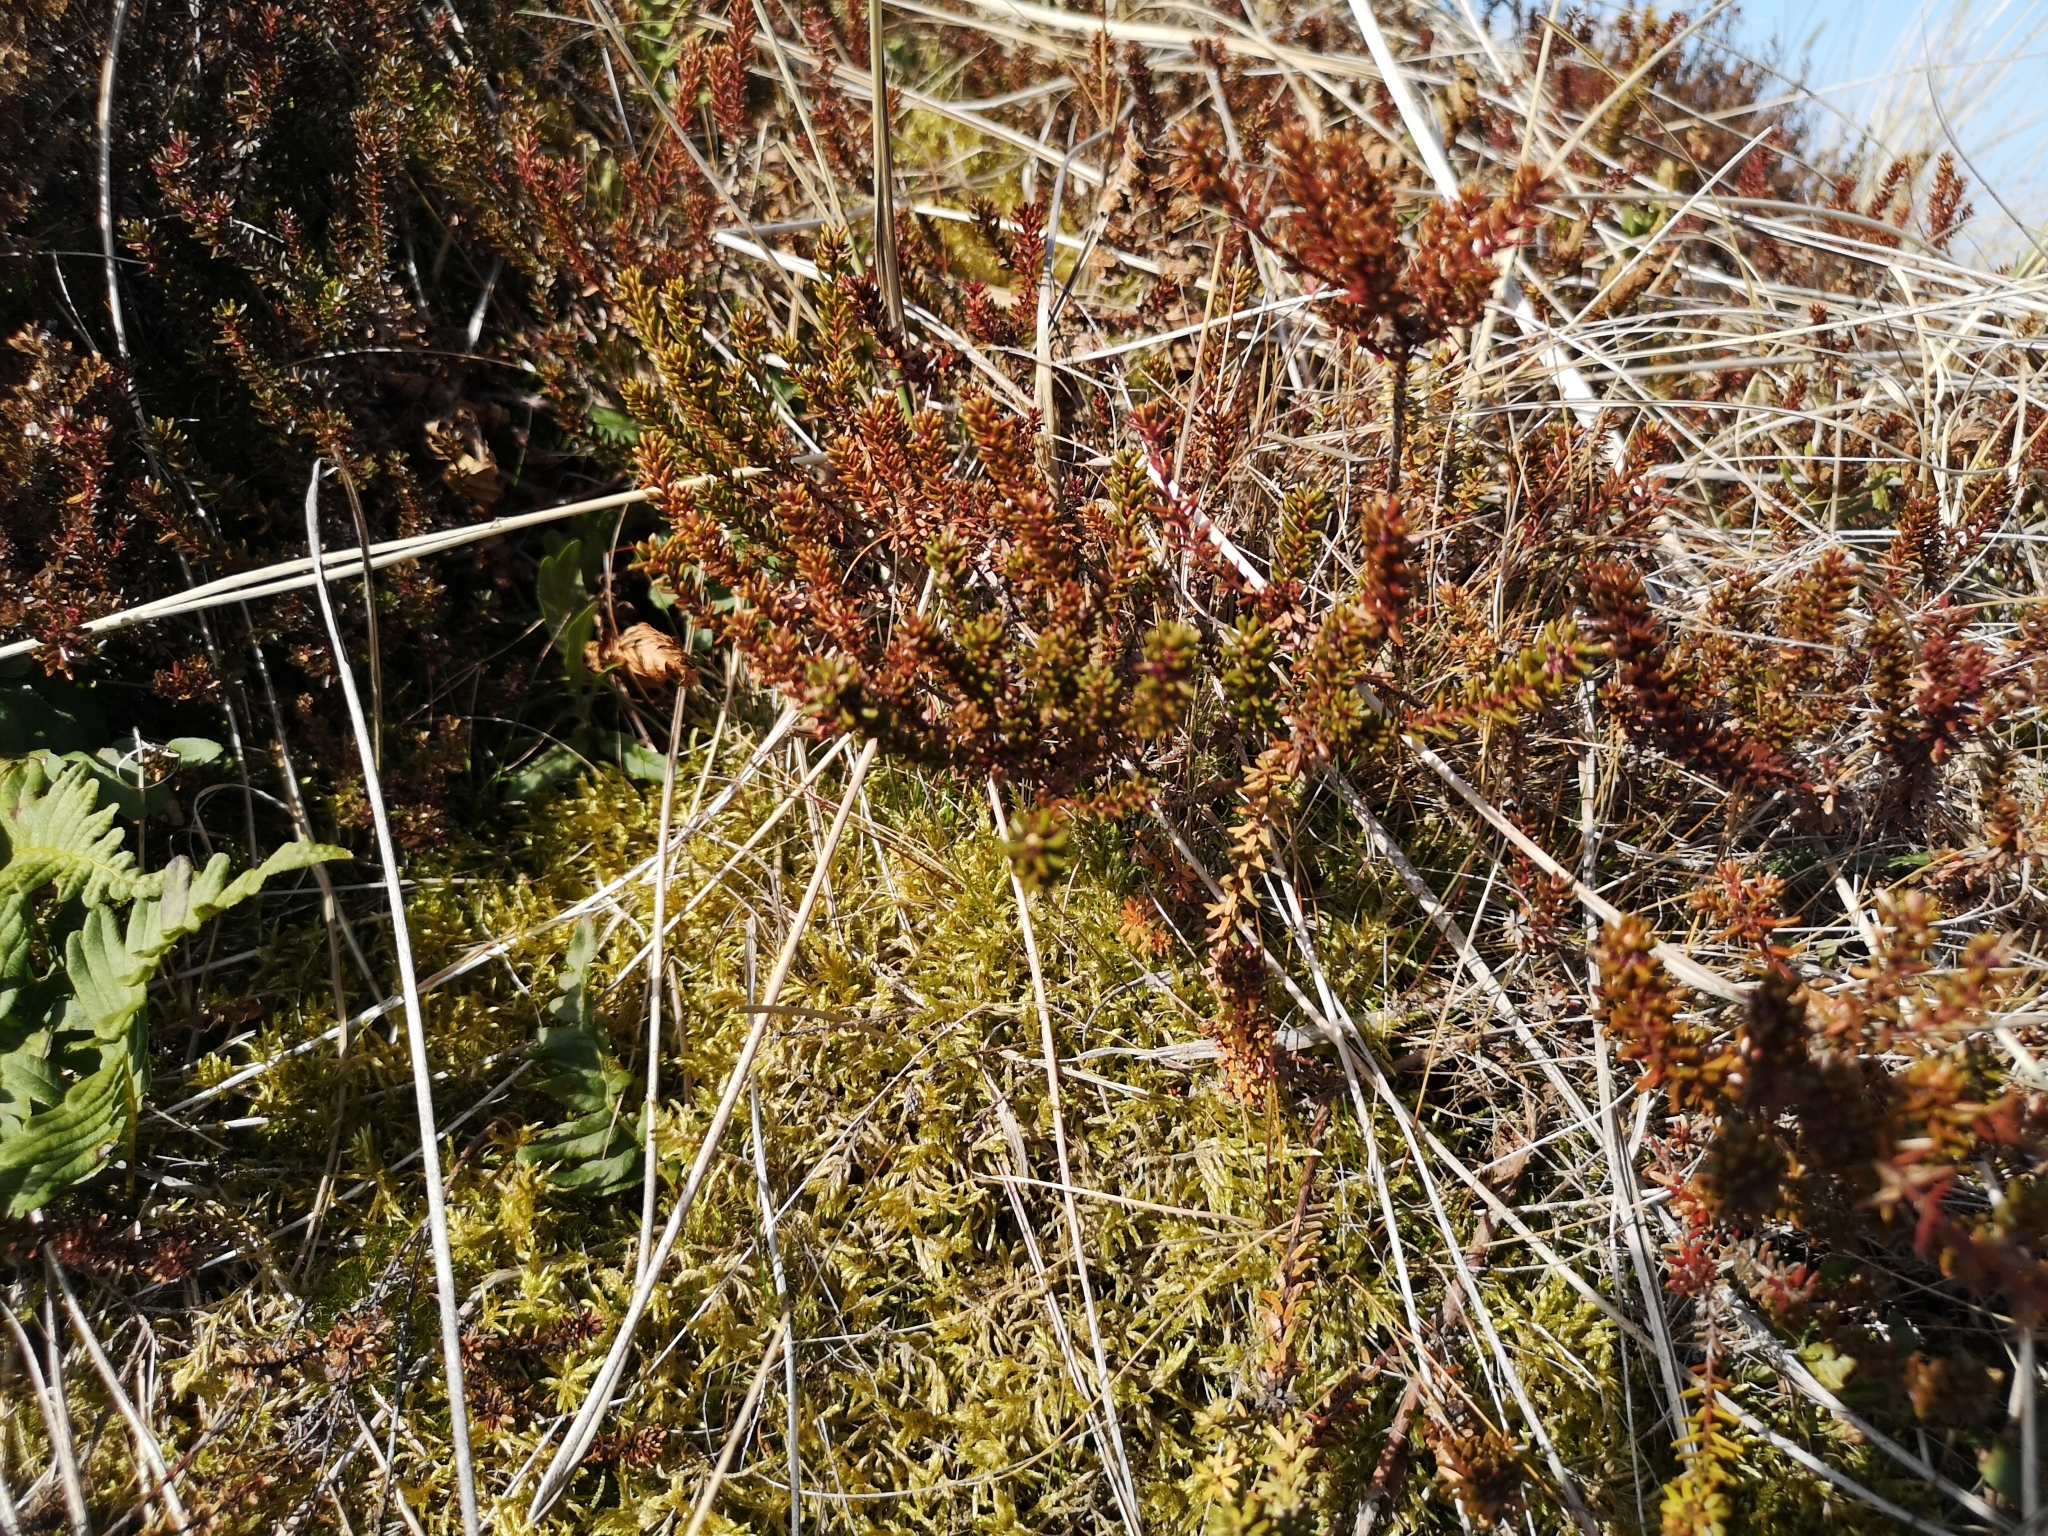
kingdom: Plantae
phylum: Tracheophyta
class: Magnoliopsida
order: Ericales
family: Ericaceae
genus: Empetrum
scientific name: Empetrum nigrum
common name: Black crowberry
